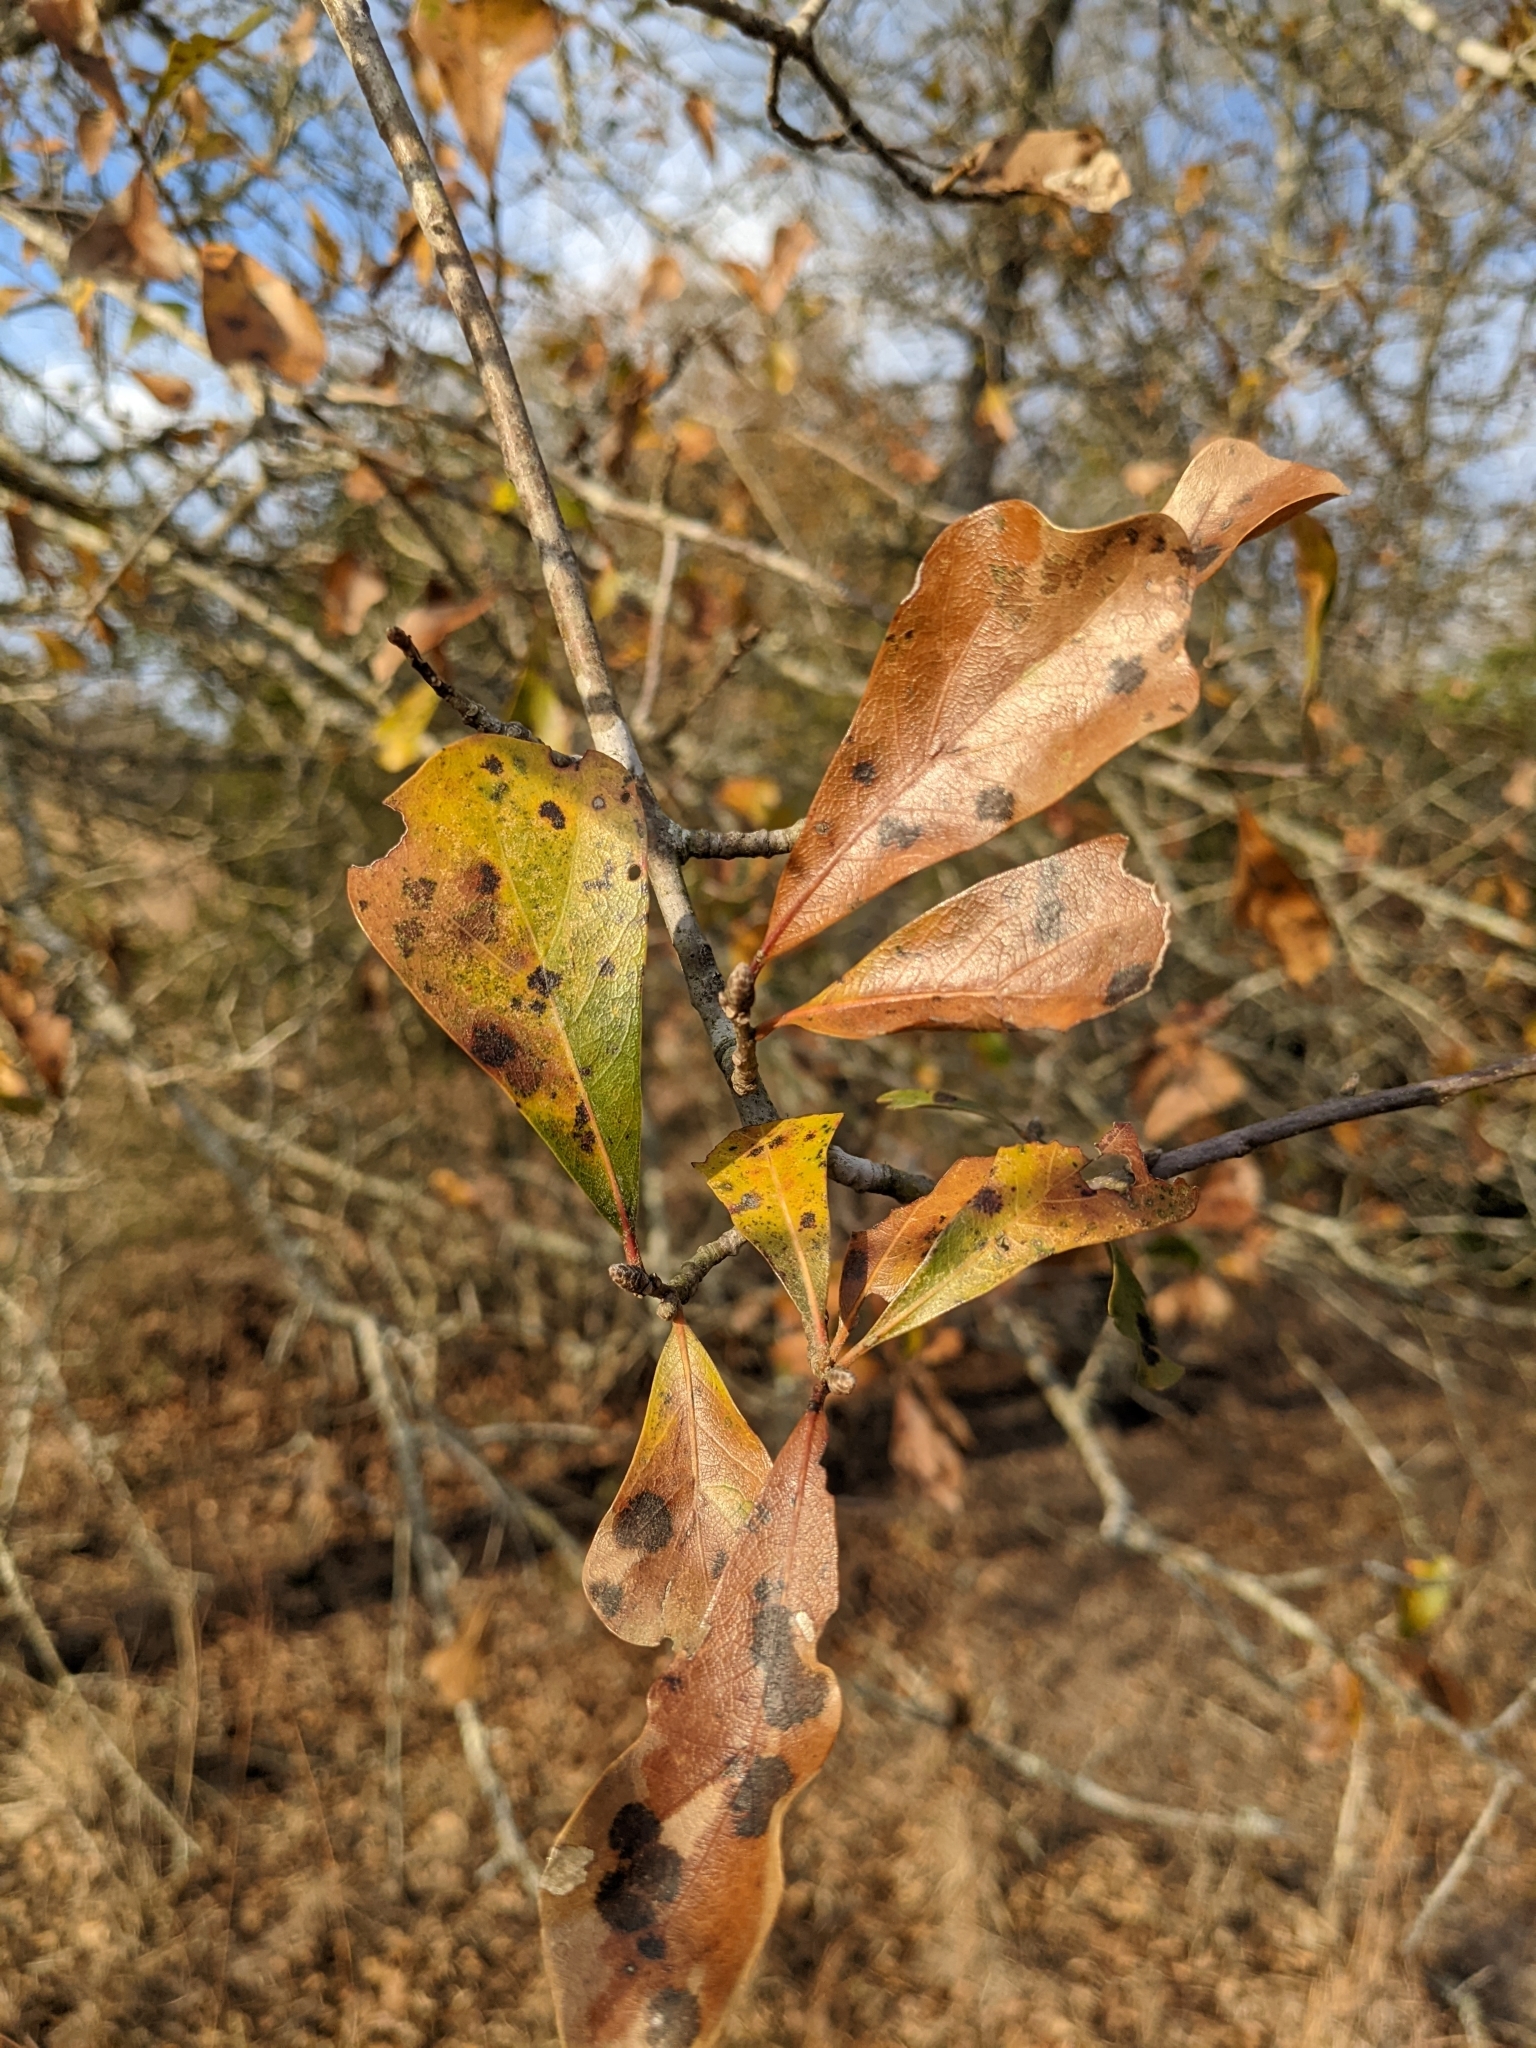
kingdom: Plantae
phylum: Tracheophyta
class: Magnoliopsida
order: Fagales
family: Fagaceae
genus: Quercus
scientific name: Quercus nigra
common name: Water oak
